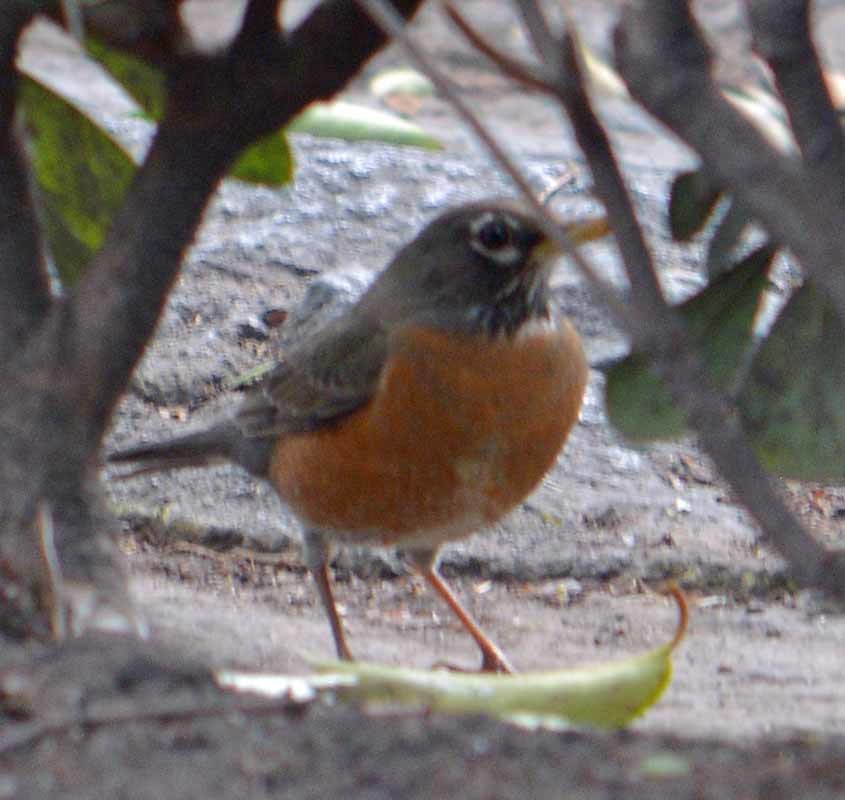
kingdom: Animalia
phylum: Chordata
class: Aves
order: Passeriformes
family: Turdidae
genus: Turdus
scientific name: Turdus migratorius
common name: American robin
